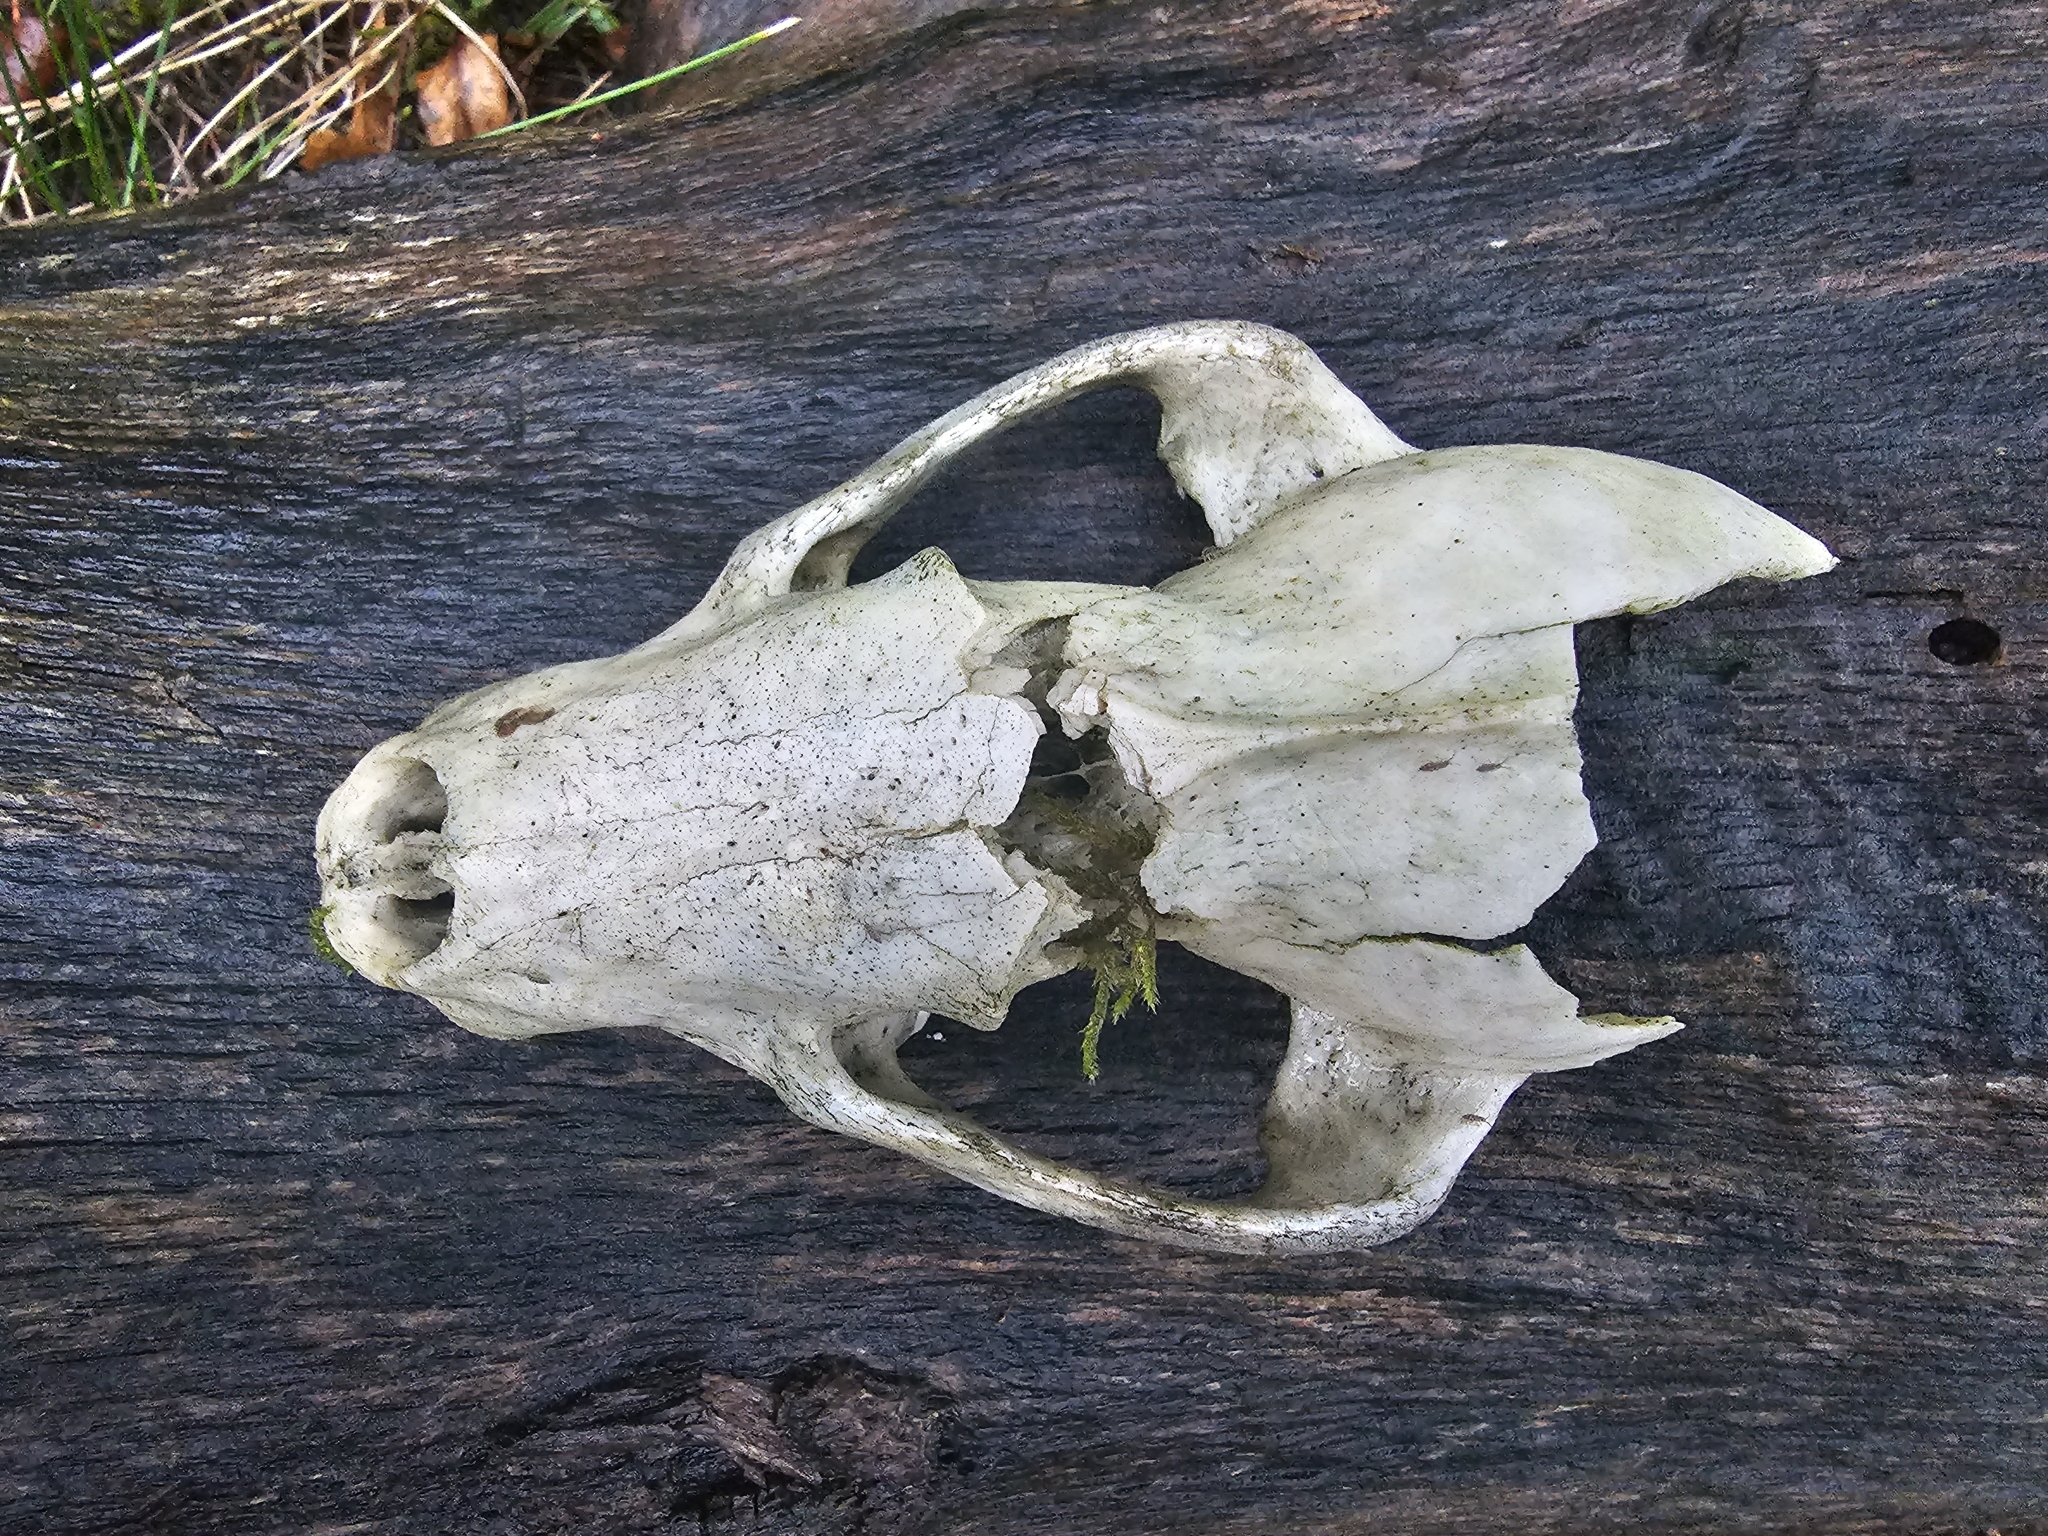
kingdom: Animalia
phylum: Chordata
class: Mammalia
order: Carnivora
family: Mustelidae
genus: Meles
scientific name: Meles meles
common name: Eurasian badger
